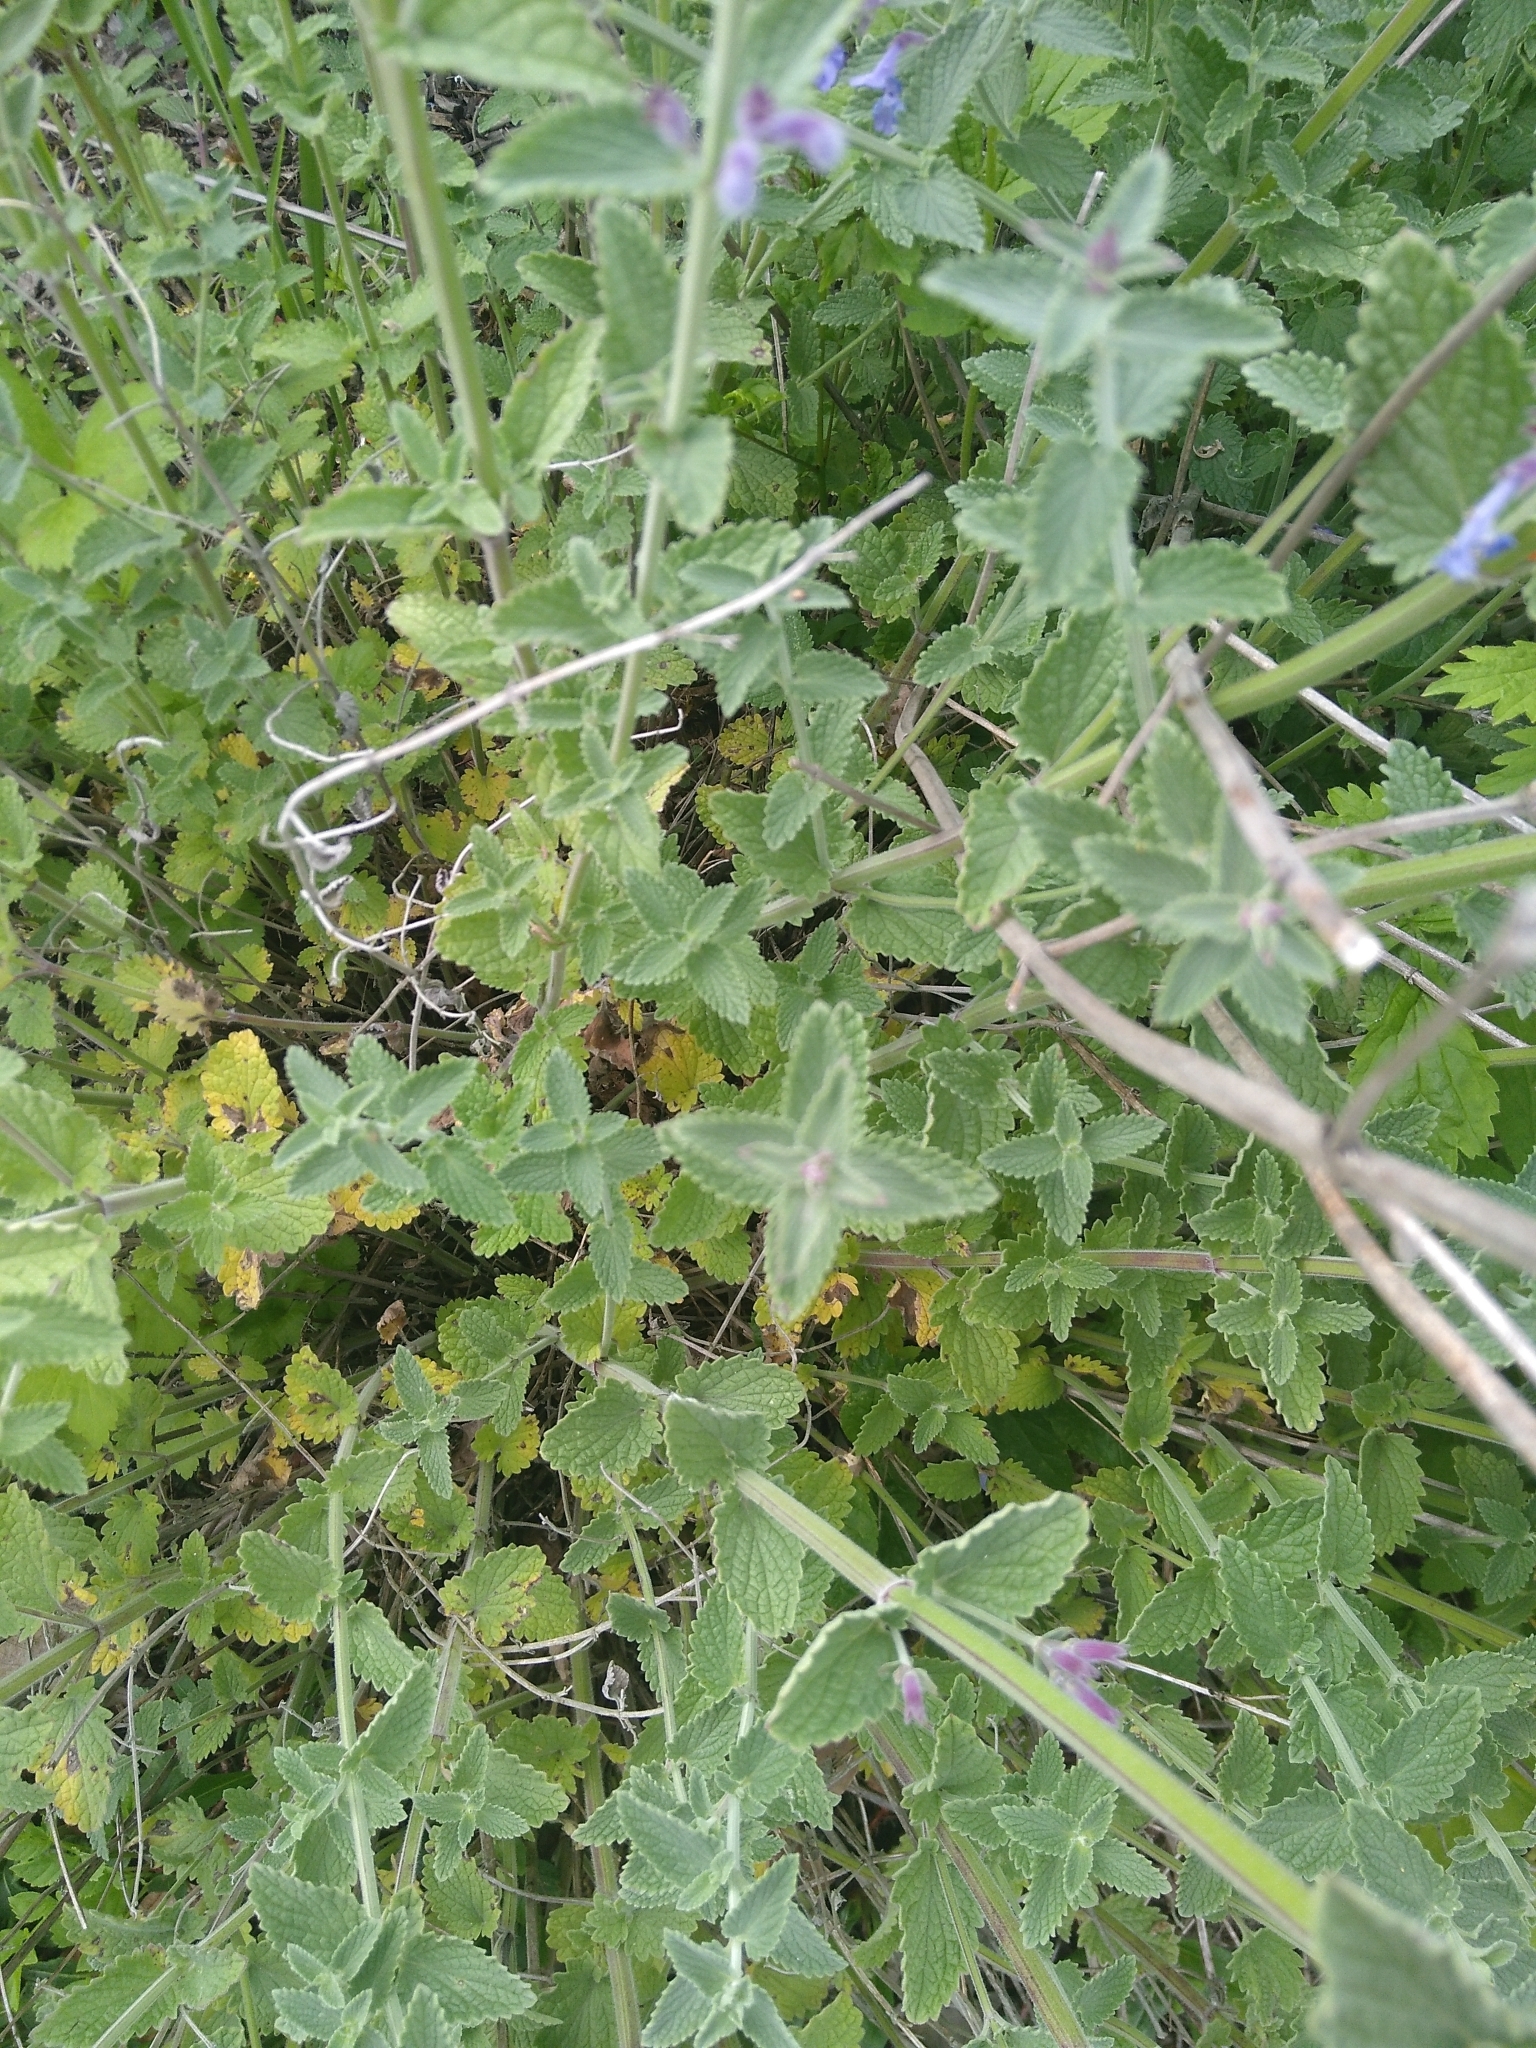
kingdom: Plantae
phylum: Tracheophyta
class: Magnoliopsida
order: Lamiales
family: Lamiaceae
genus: Nepeta
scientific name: Nepeta faassenii
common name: Catmint
